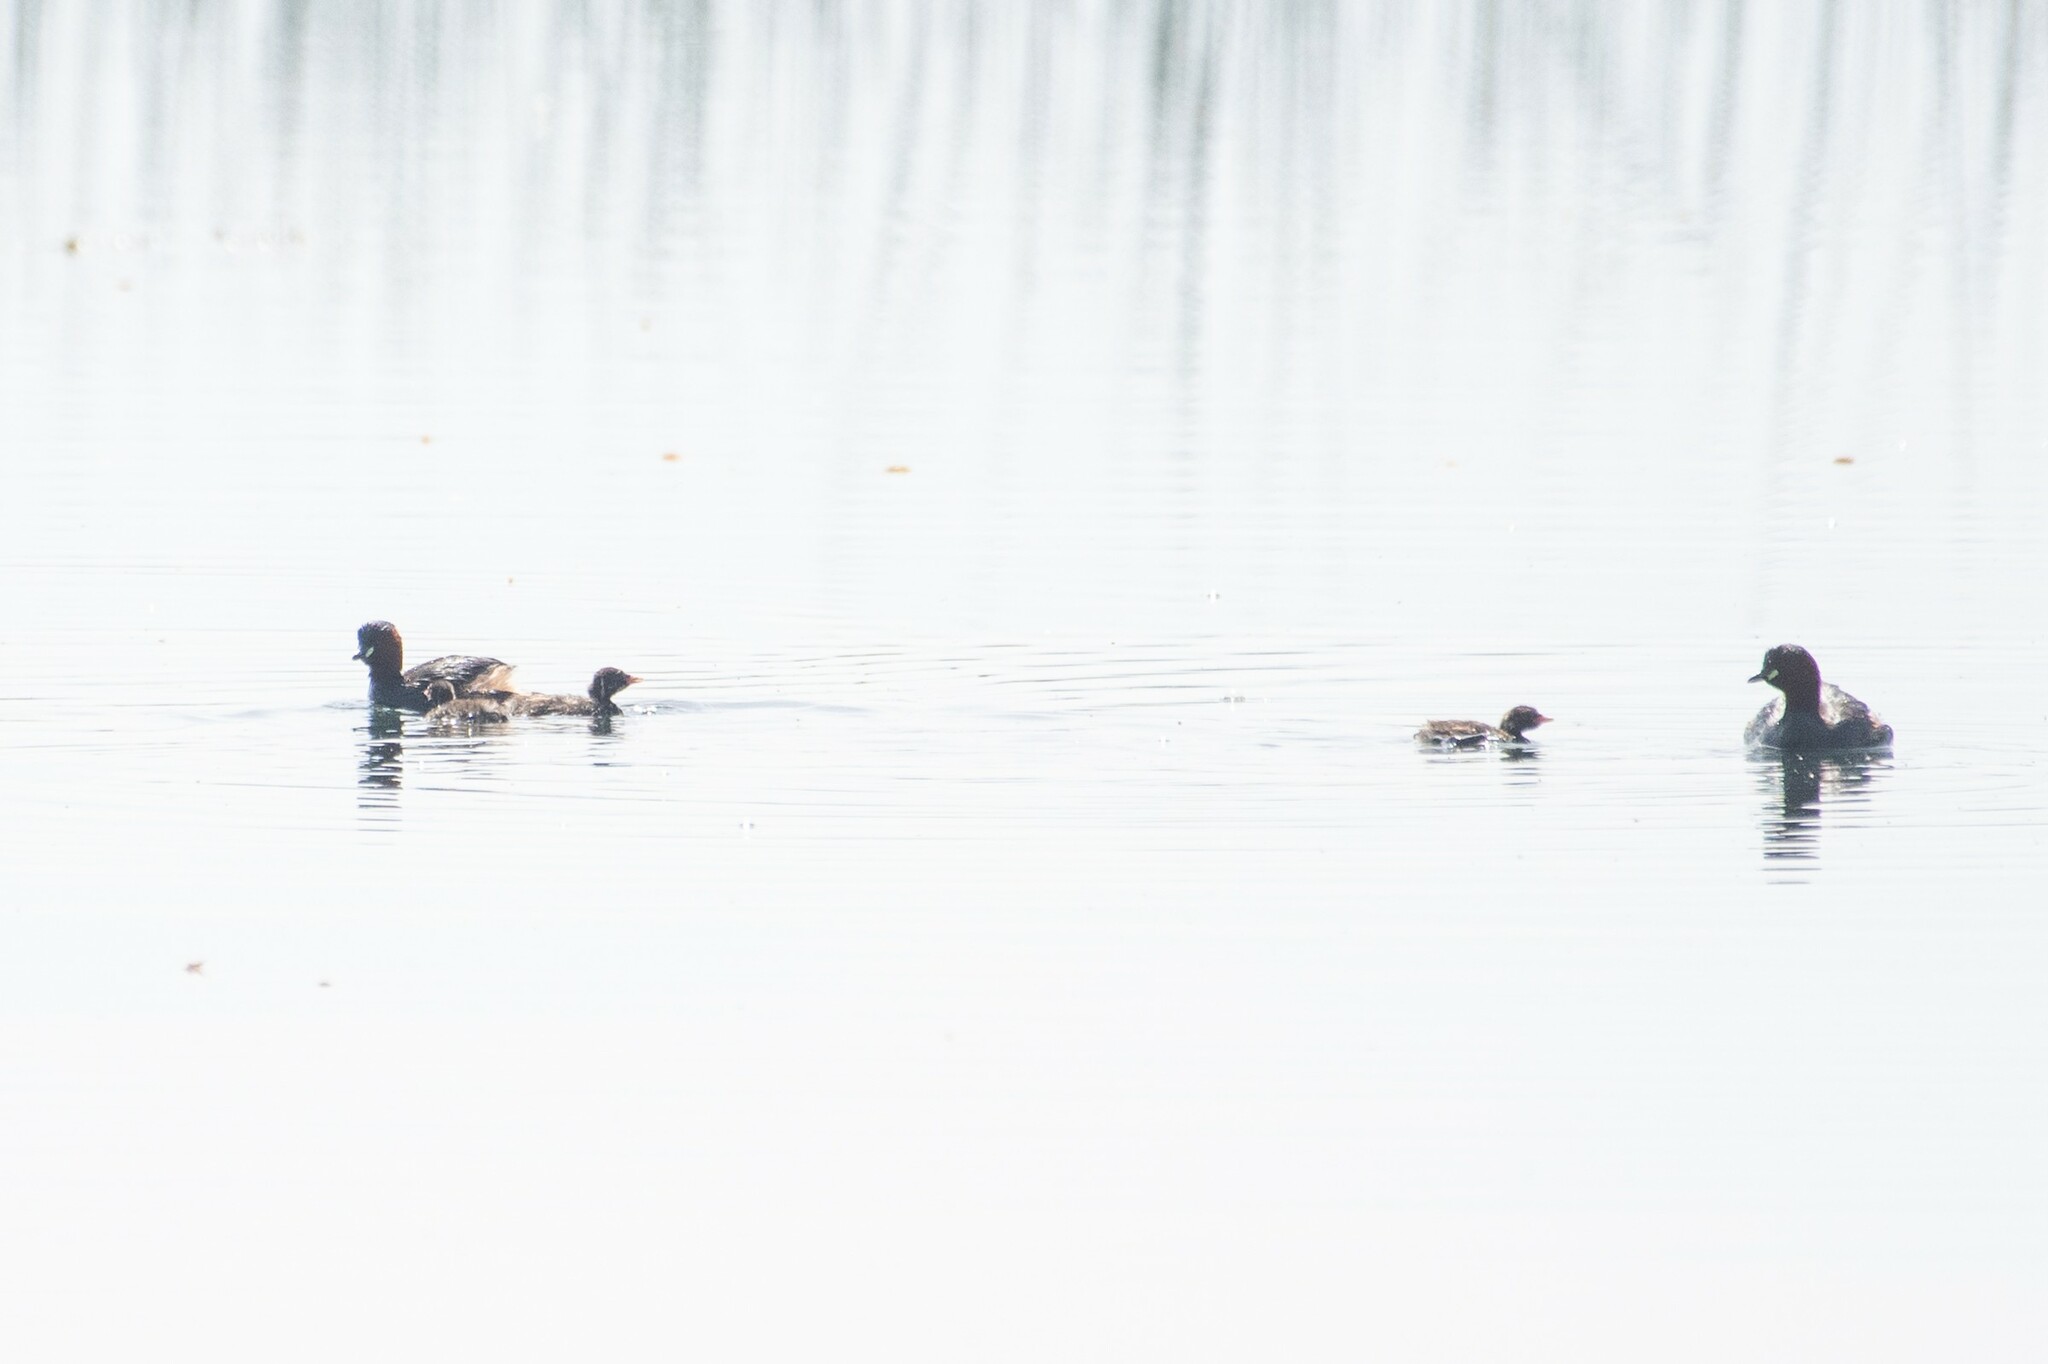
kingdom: Animalia
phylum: Chordata
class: Aves
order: Podicipediformes
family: Podicipedidae
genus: Tachybaptus
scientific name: Tachybaptus ruficollis
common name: Little grebe
